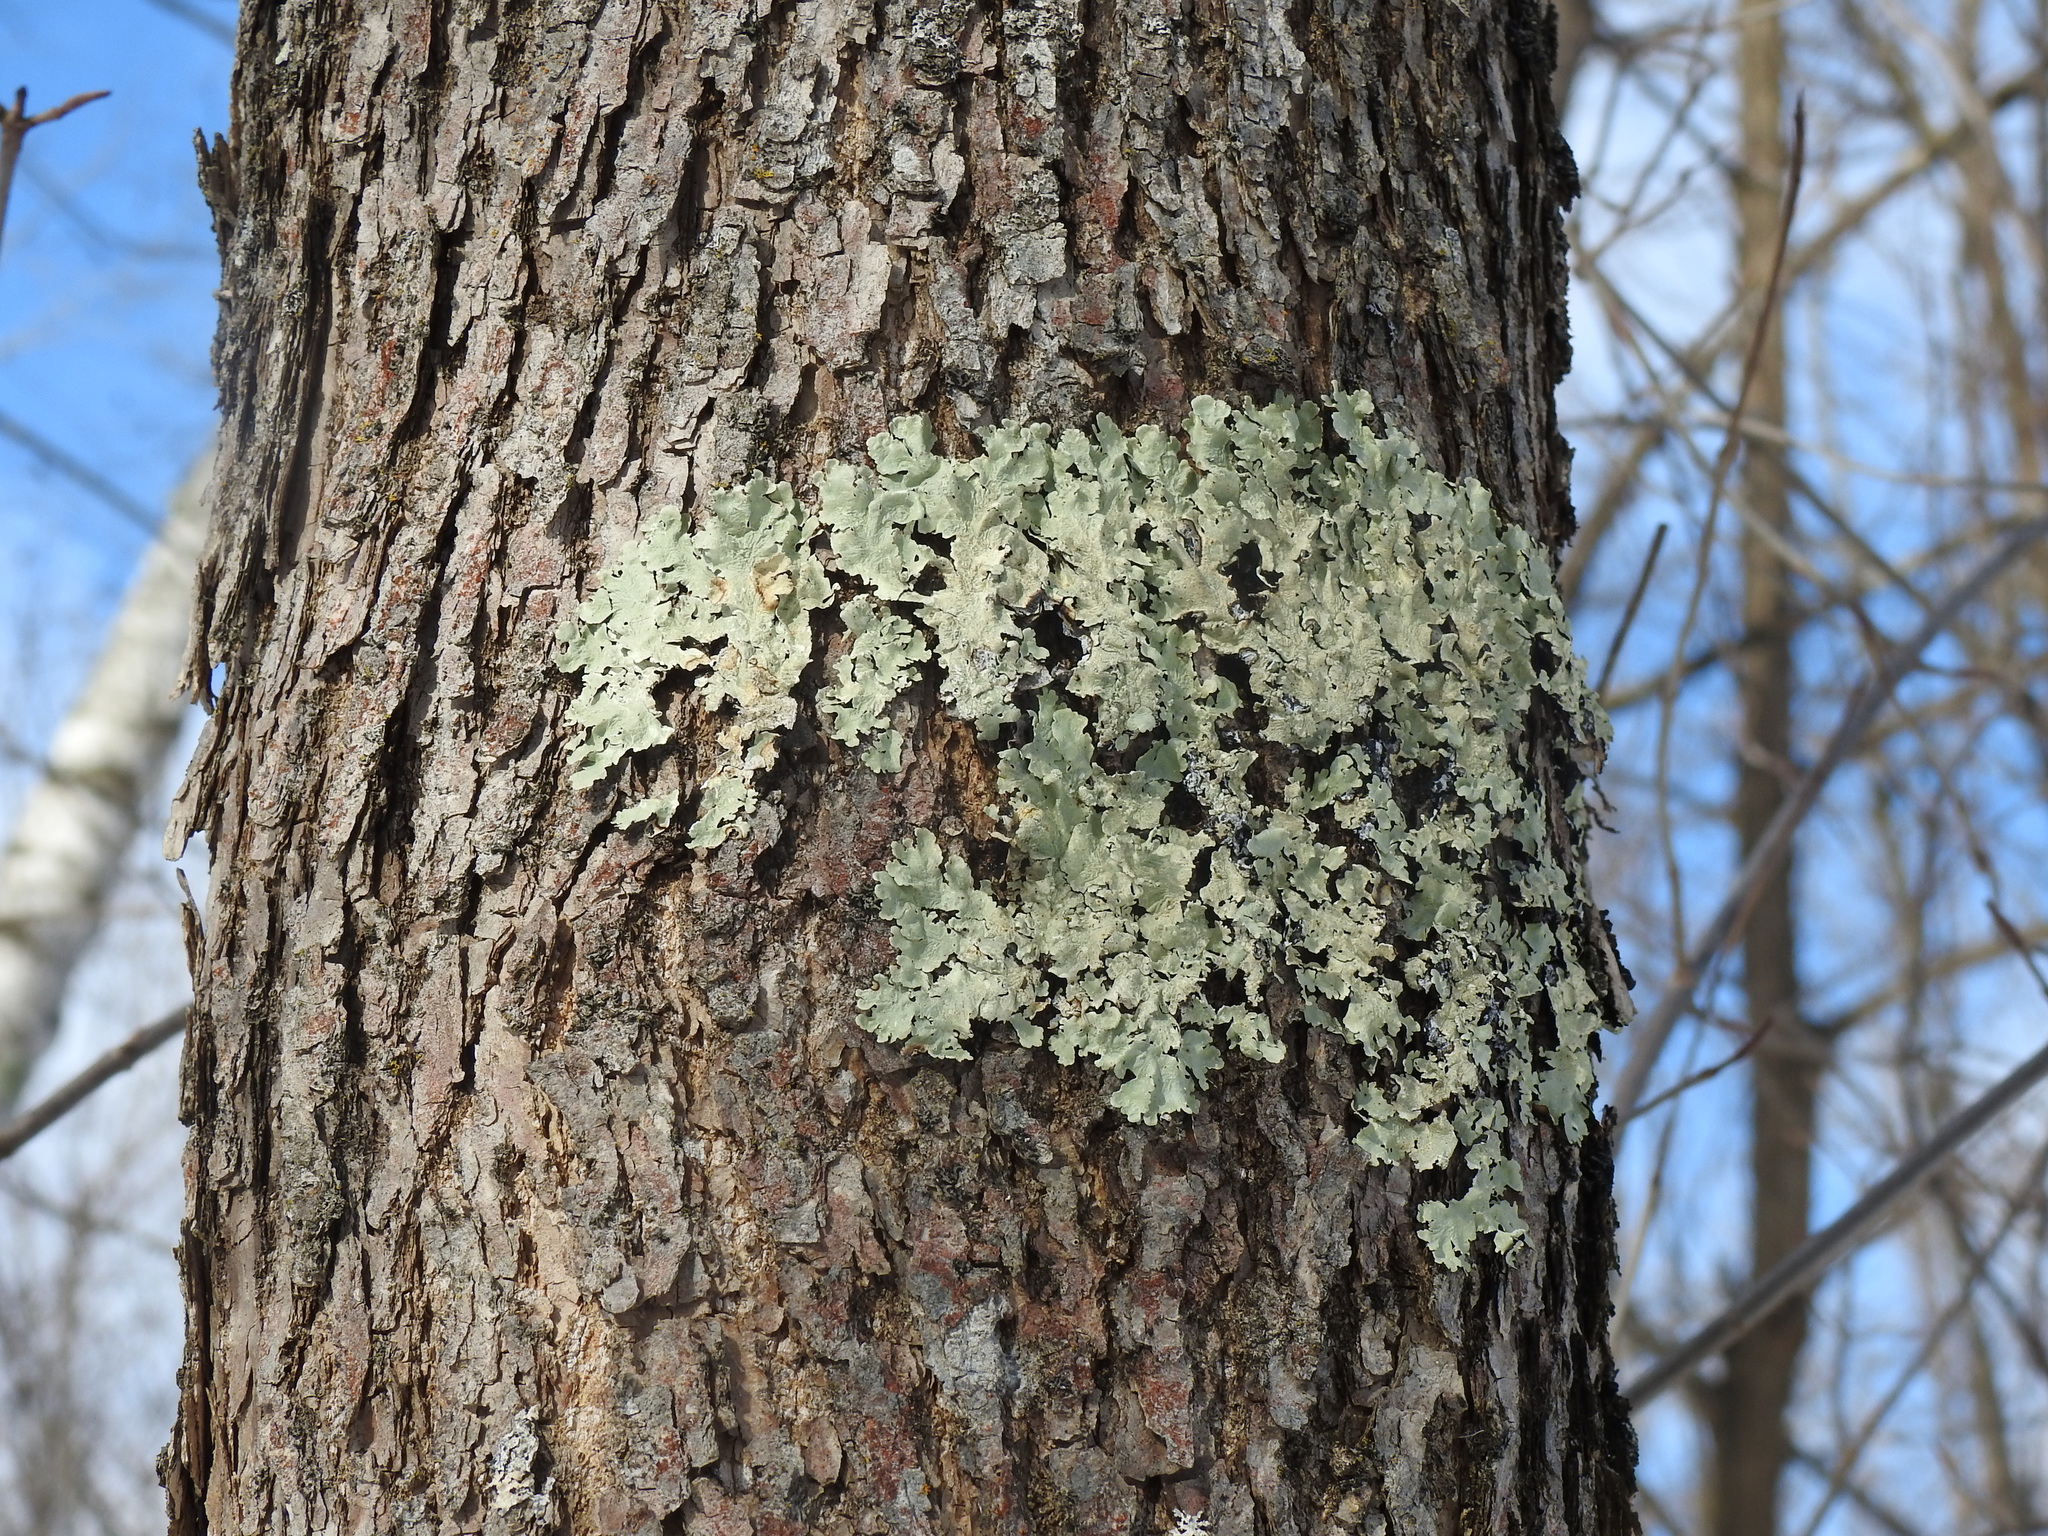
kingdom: Fungi
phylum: Ascomycota
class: Lecanoromycetes
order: Lecanorales
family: Parmeliaceae
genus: Flavoparmelia
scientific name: Flavoparmelia caperata
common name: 40-mile per hour lichen
